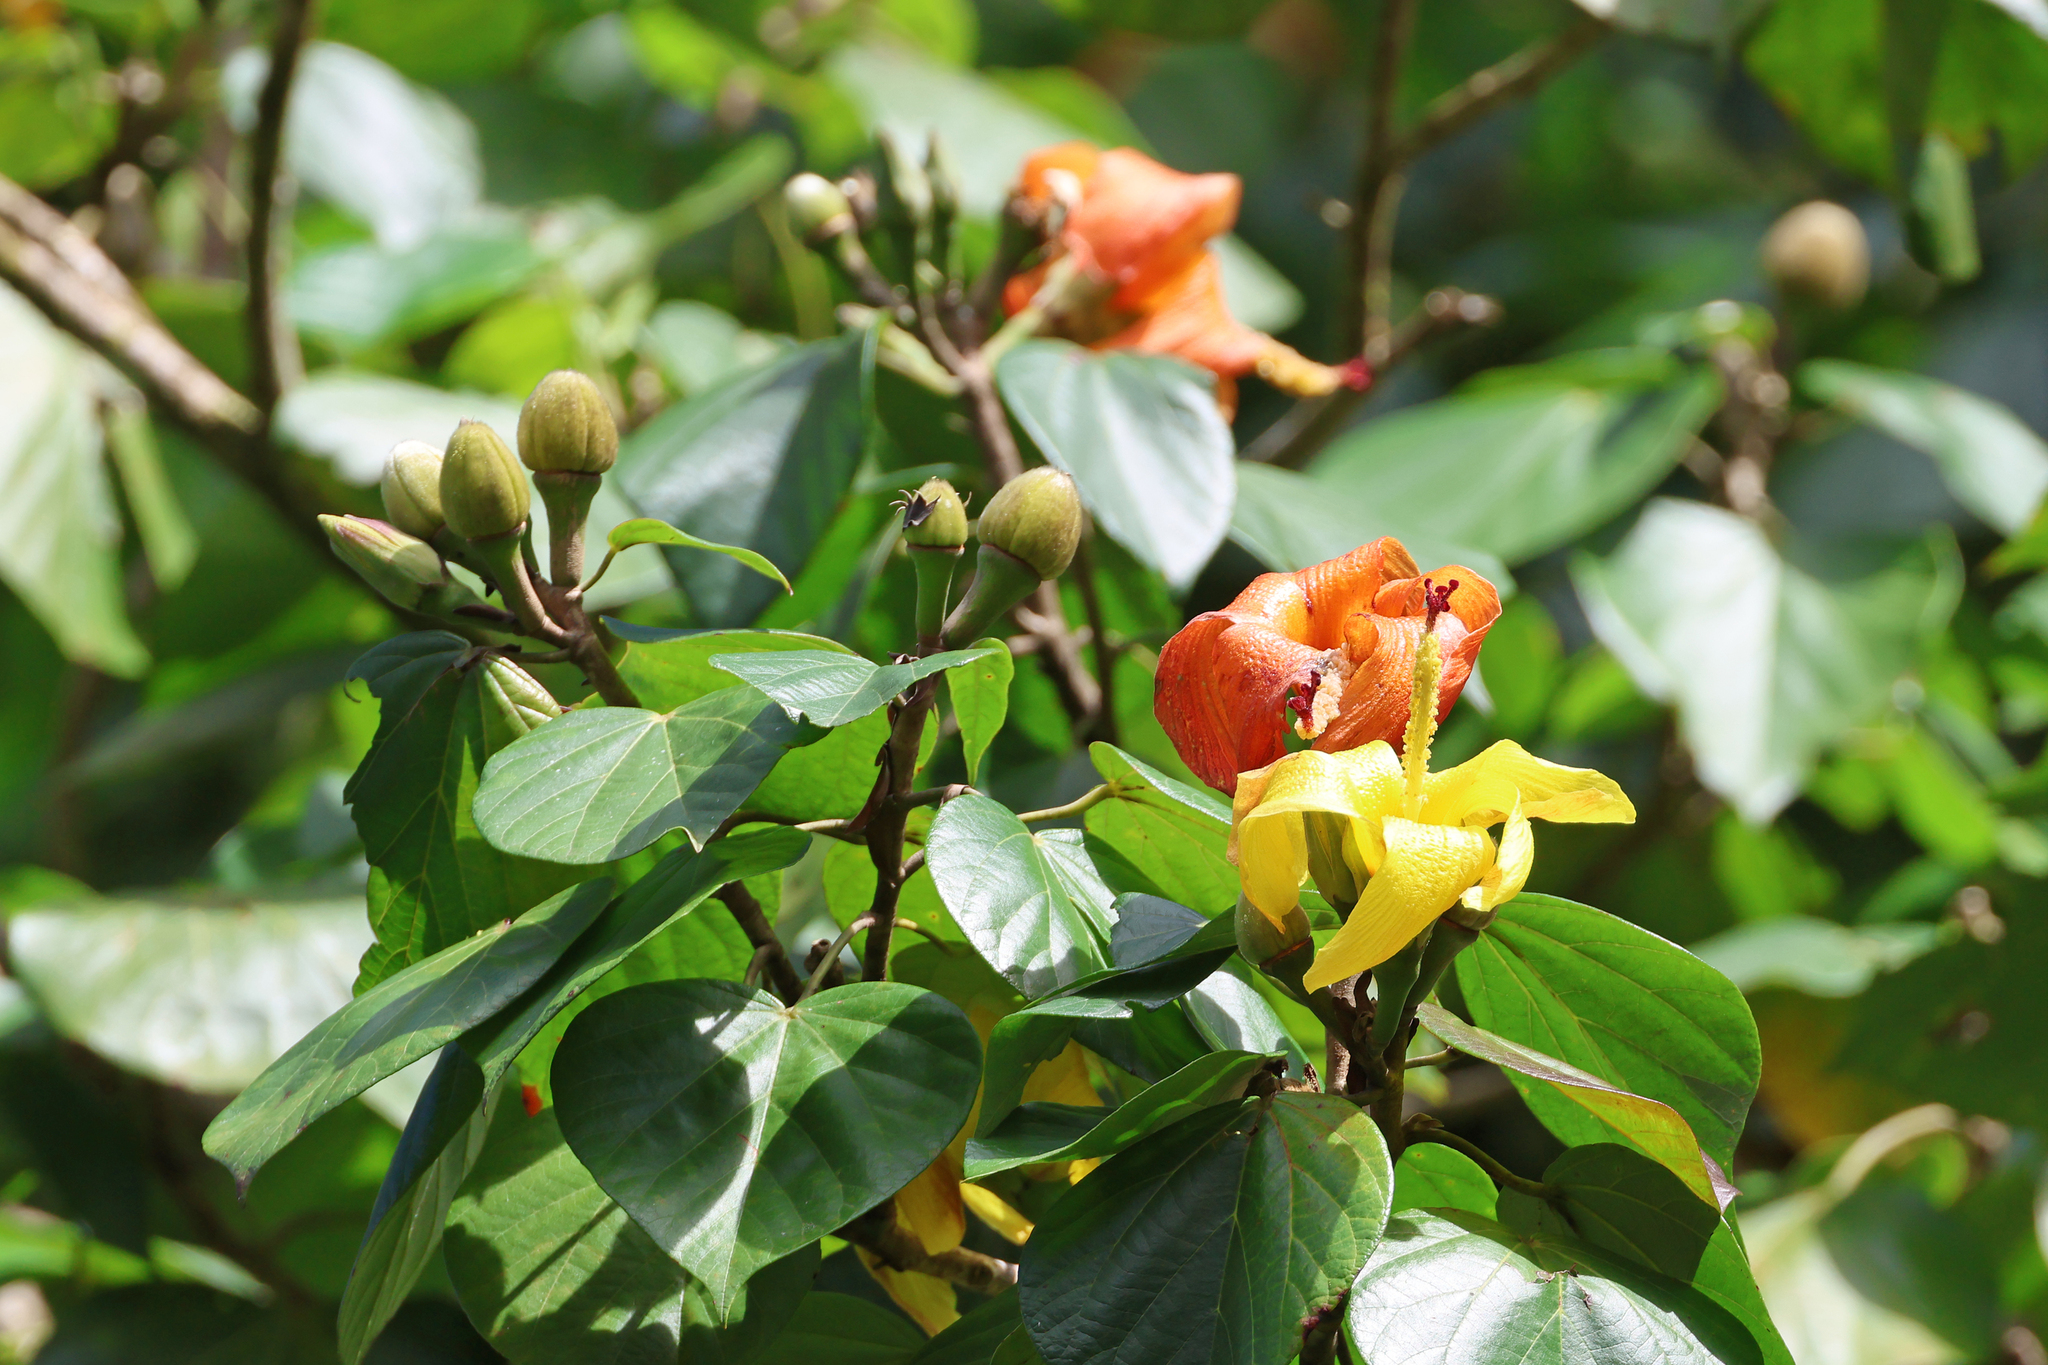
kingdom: Plantae
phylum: Tracheophyta
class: Magnoliopsida
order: Malvales
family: Malvaceae
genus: Talipariti
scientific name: Talipariti
